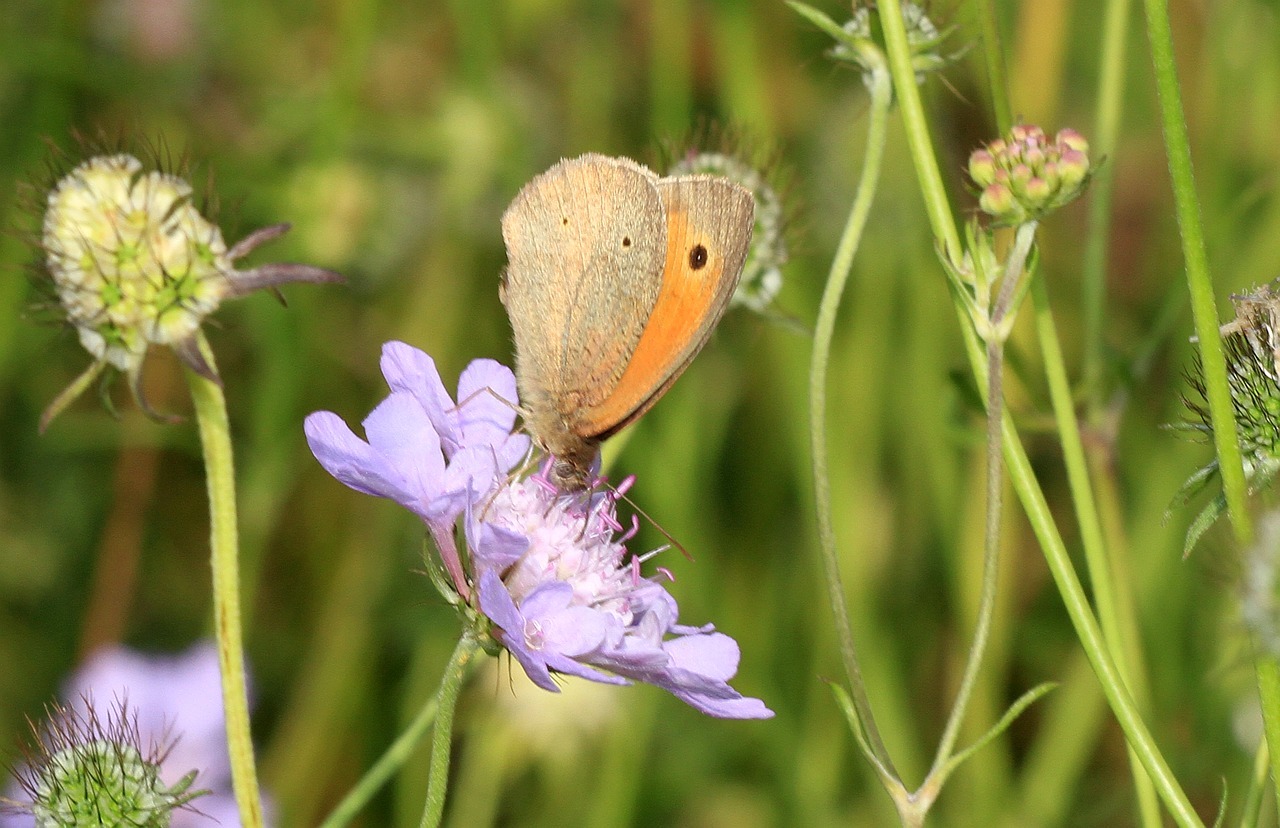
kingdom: Animalia
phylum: Arthropoda
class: Insecta
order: Lepidoptera
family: Nymphalidae
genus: Maniola
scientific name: Maniola jurtina
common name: Meadow brown
